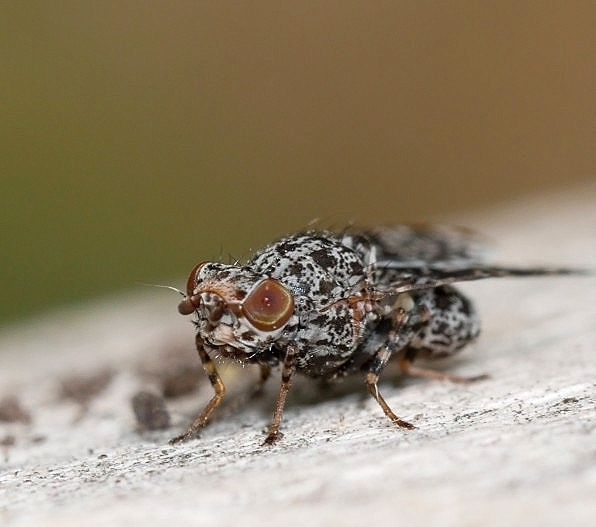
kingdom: Animalia
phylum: Arthropoda
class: Insecta
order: Diptera
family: Ulidiidae
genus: Callopistromyia
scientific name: Callopistromyia annulipes
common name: Peacock fly
